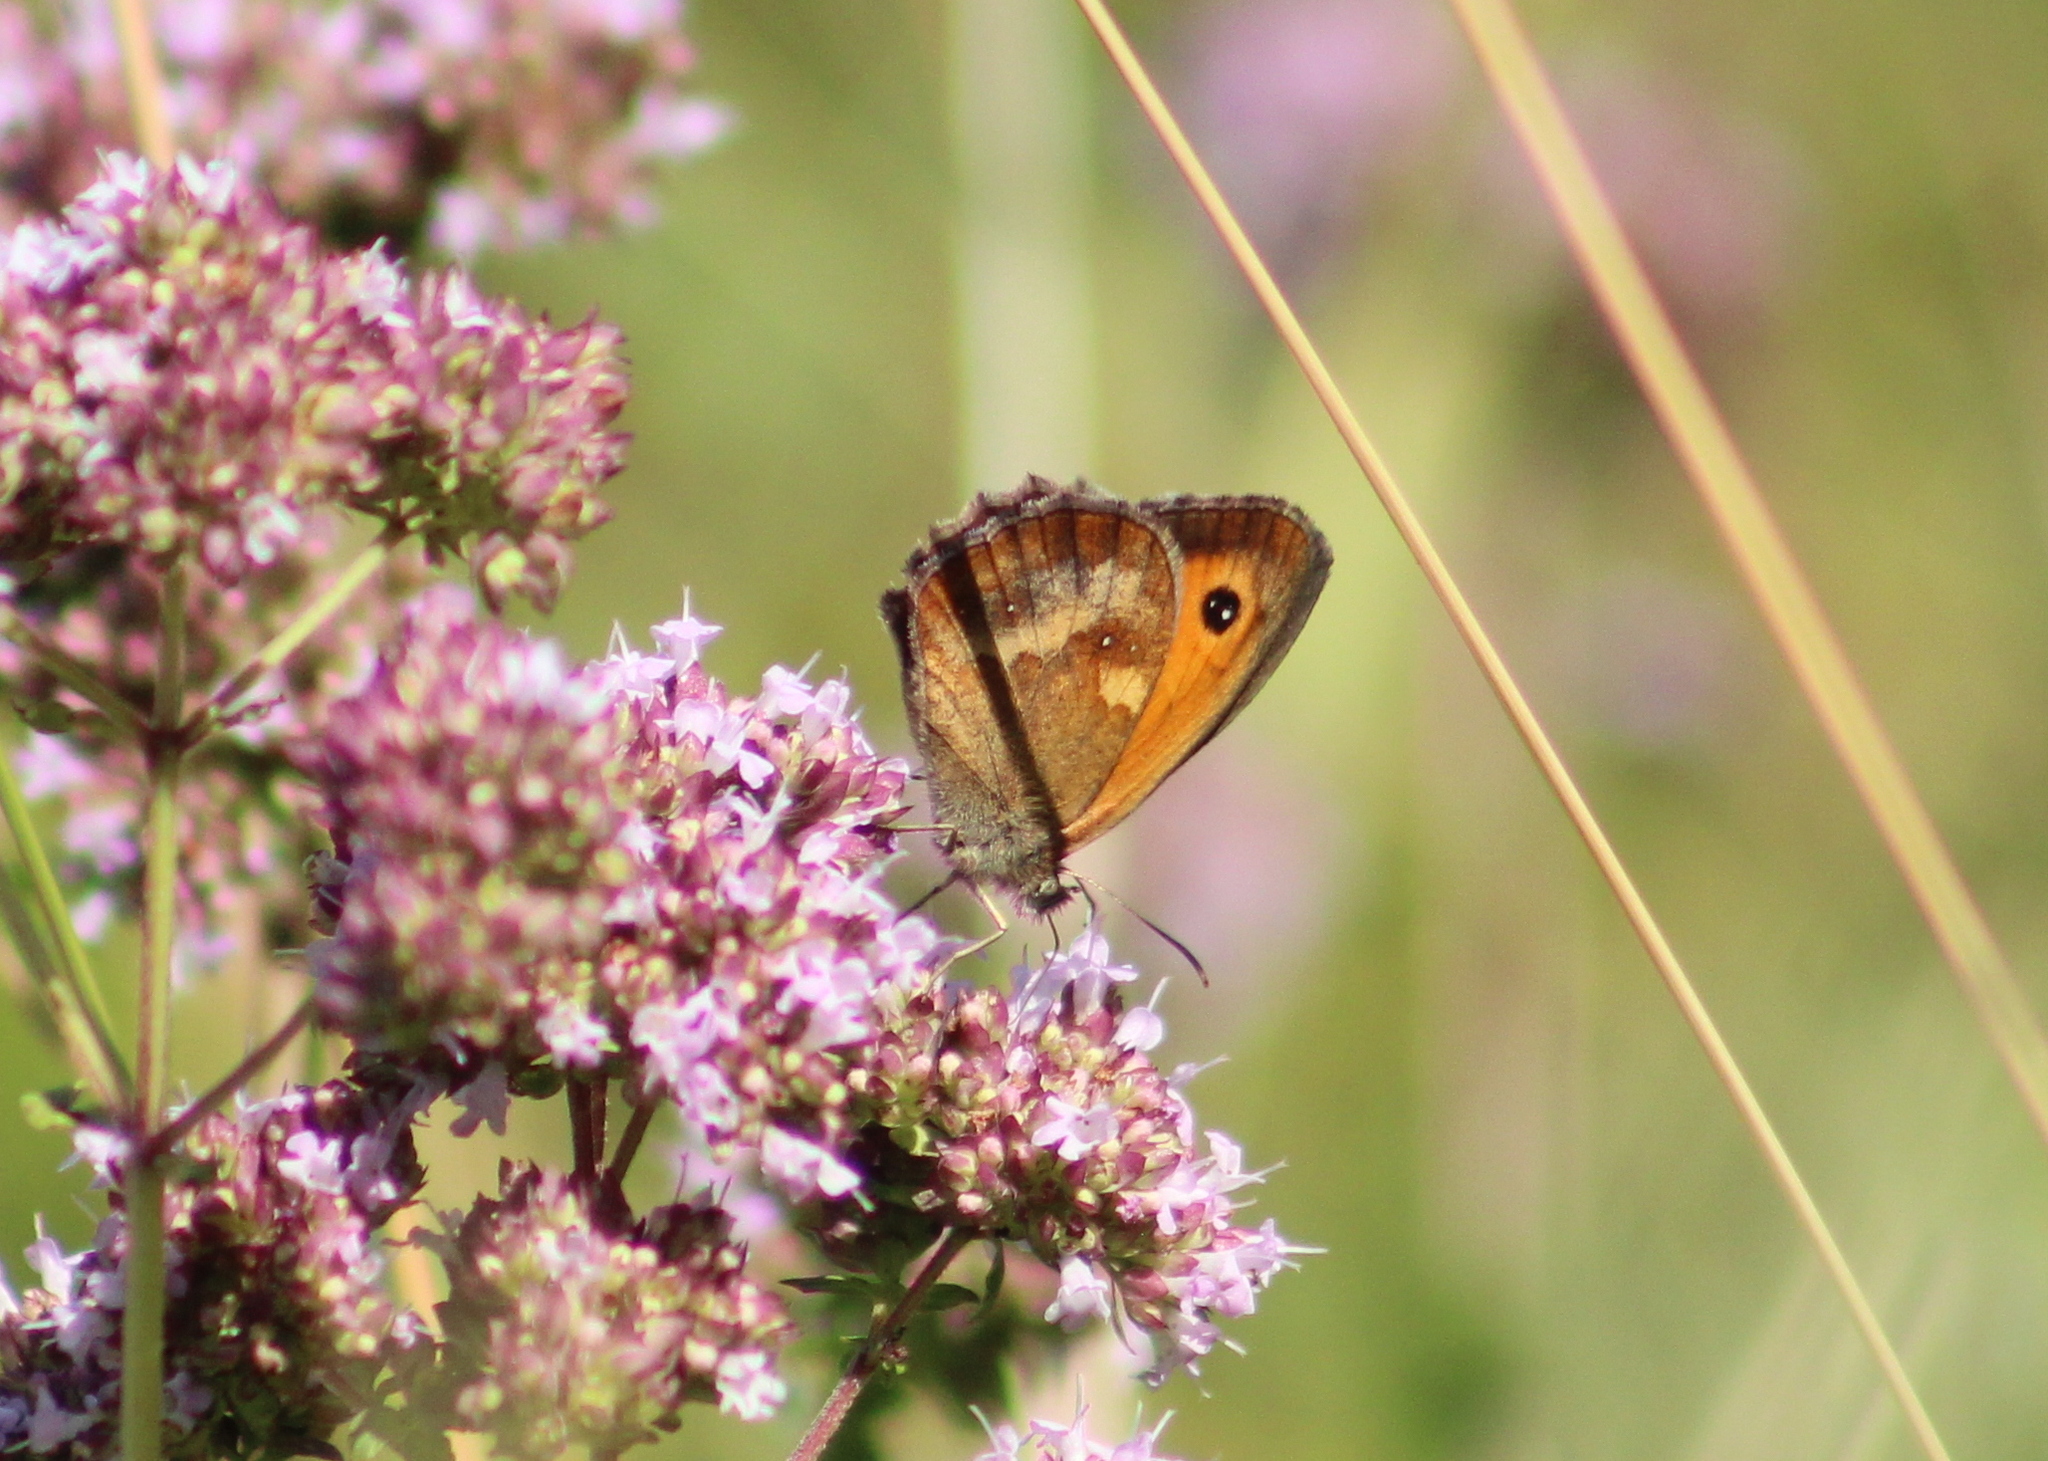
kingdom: Animalia
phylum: Arthropoda
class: Insecta
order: Lepidoptera
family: Nymphalidae
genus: Pyronia
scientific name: Pyronia tithonus
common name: Gatekeeper
